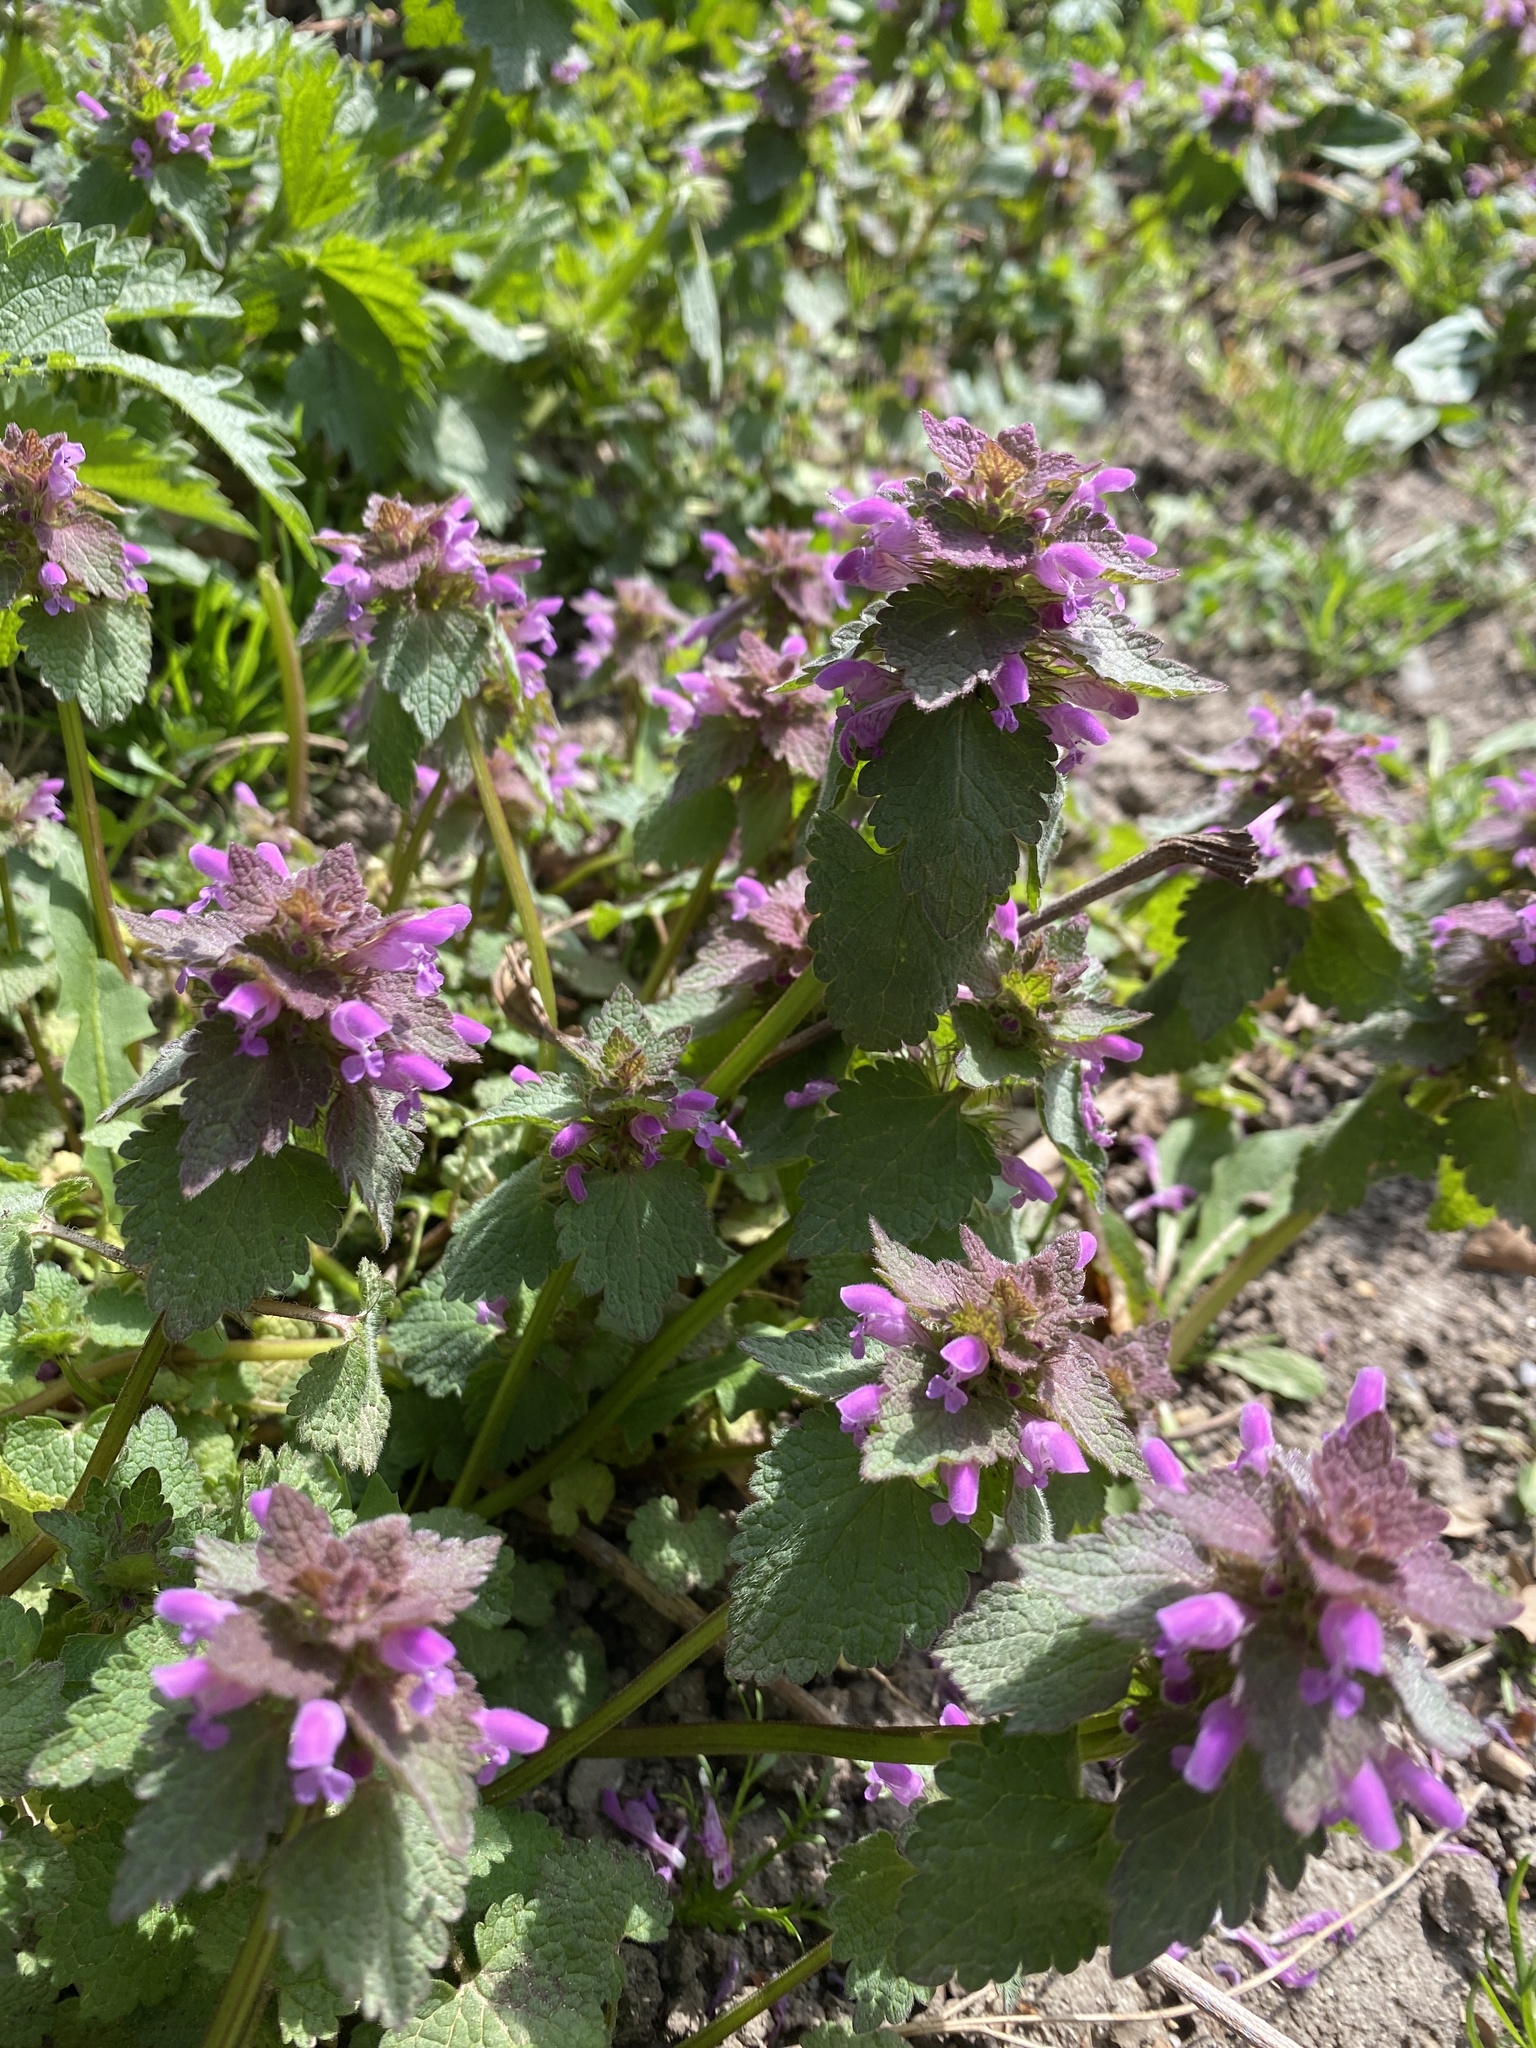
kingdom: Plantae
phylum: Tracheophyta
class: Magnoliopsida
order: Lamiales
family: Lamiaceae
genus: Lamium
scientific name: Lamium purpureum
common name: Red dead-nettle
